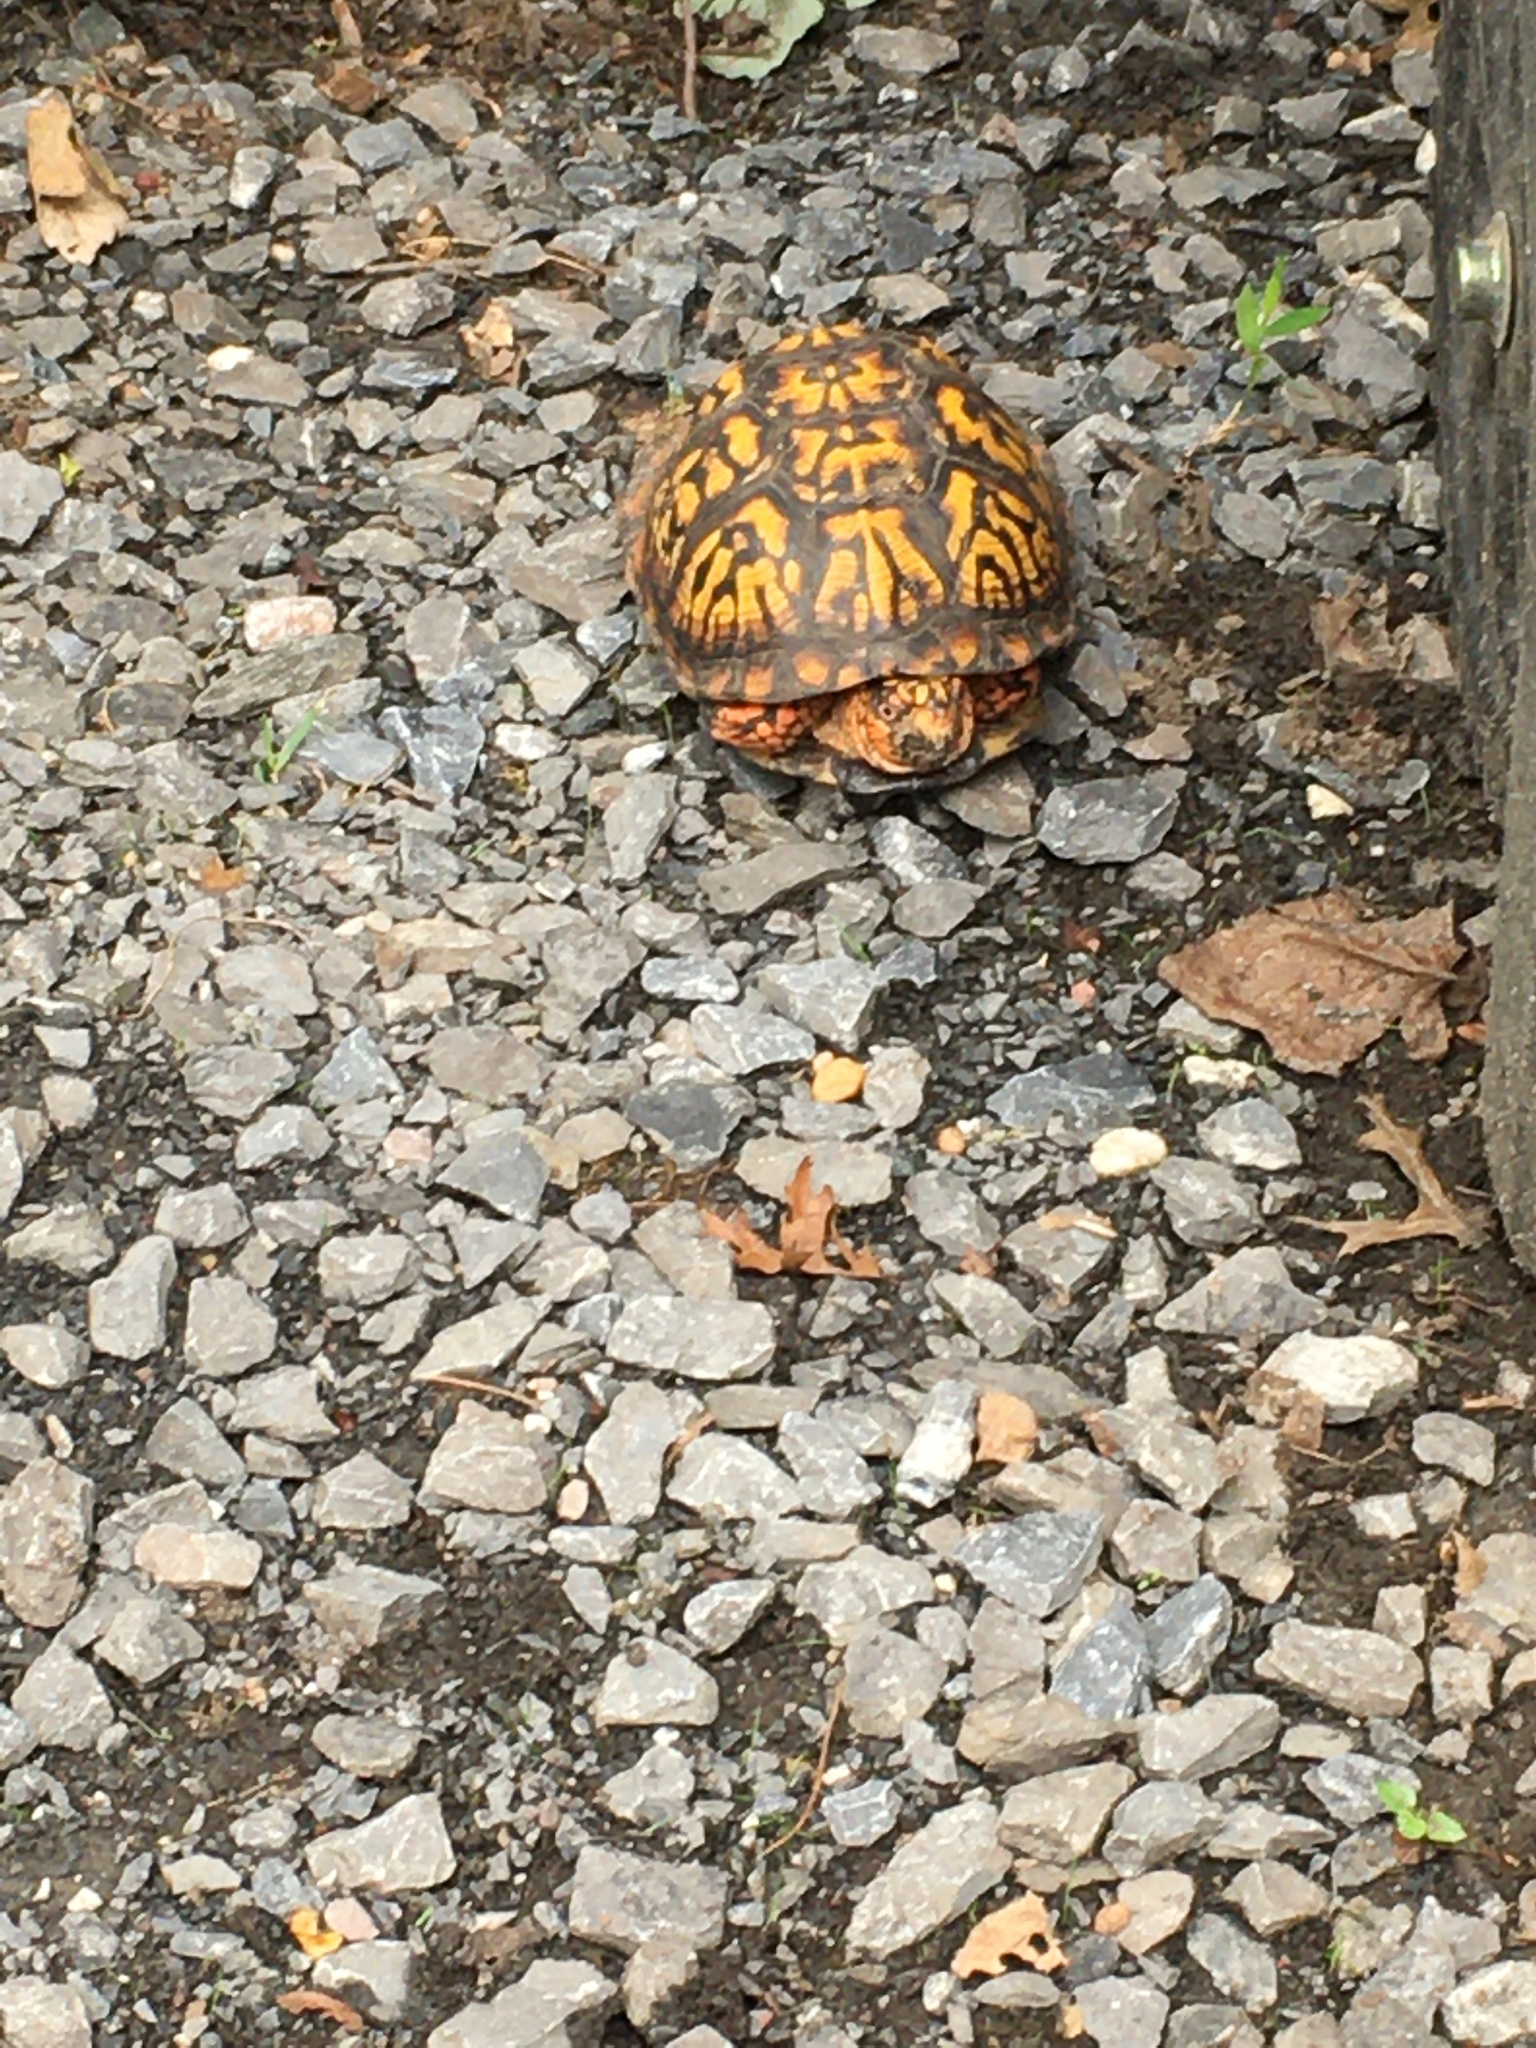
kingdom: Animalia
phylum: Chordata
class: Testudines
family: Emydidae
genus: Terrapene
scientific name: Terrapene carolina
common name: Common box turtle
